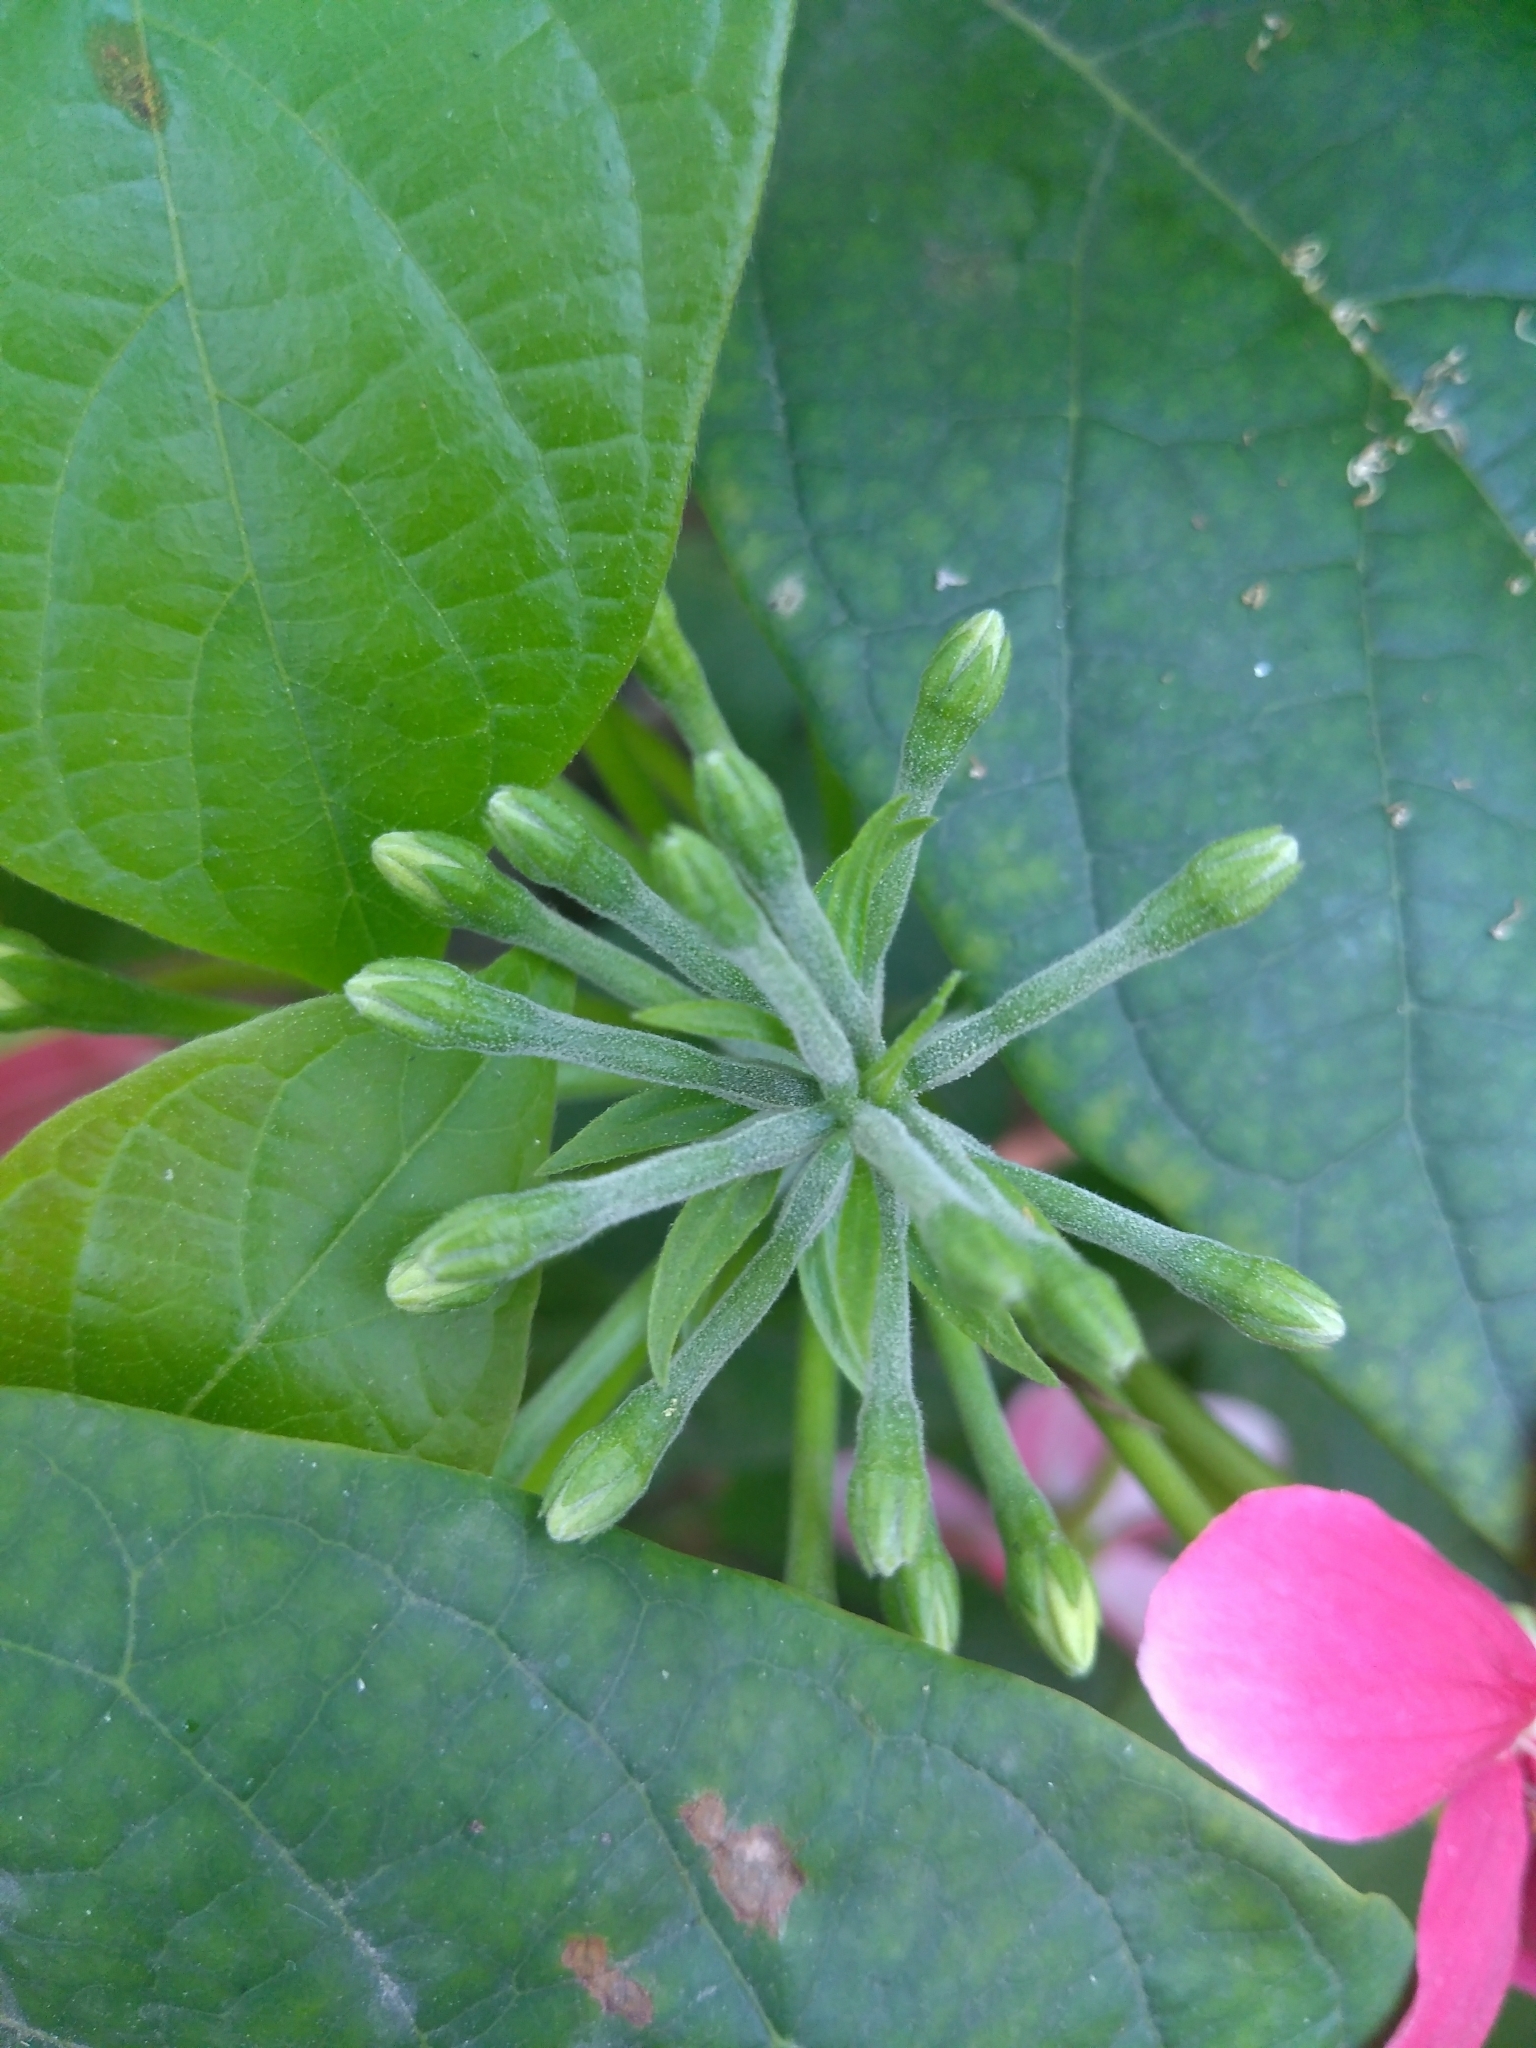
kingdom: Plantae
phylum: Tracheophyta
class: Magnoliopsida
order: Myrtales
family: Combretaceae
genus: Combretum
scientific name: Combretum indicum
